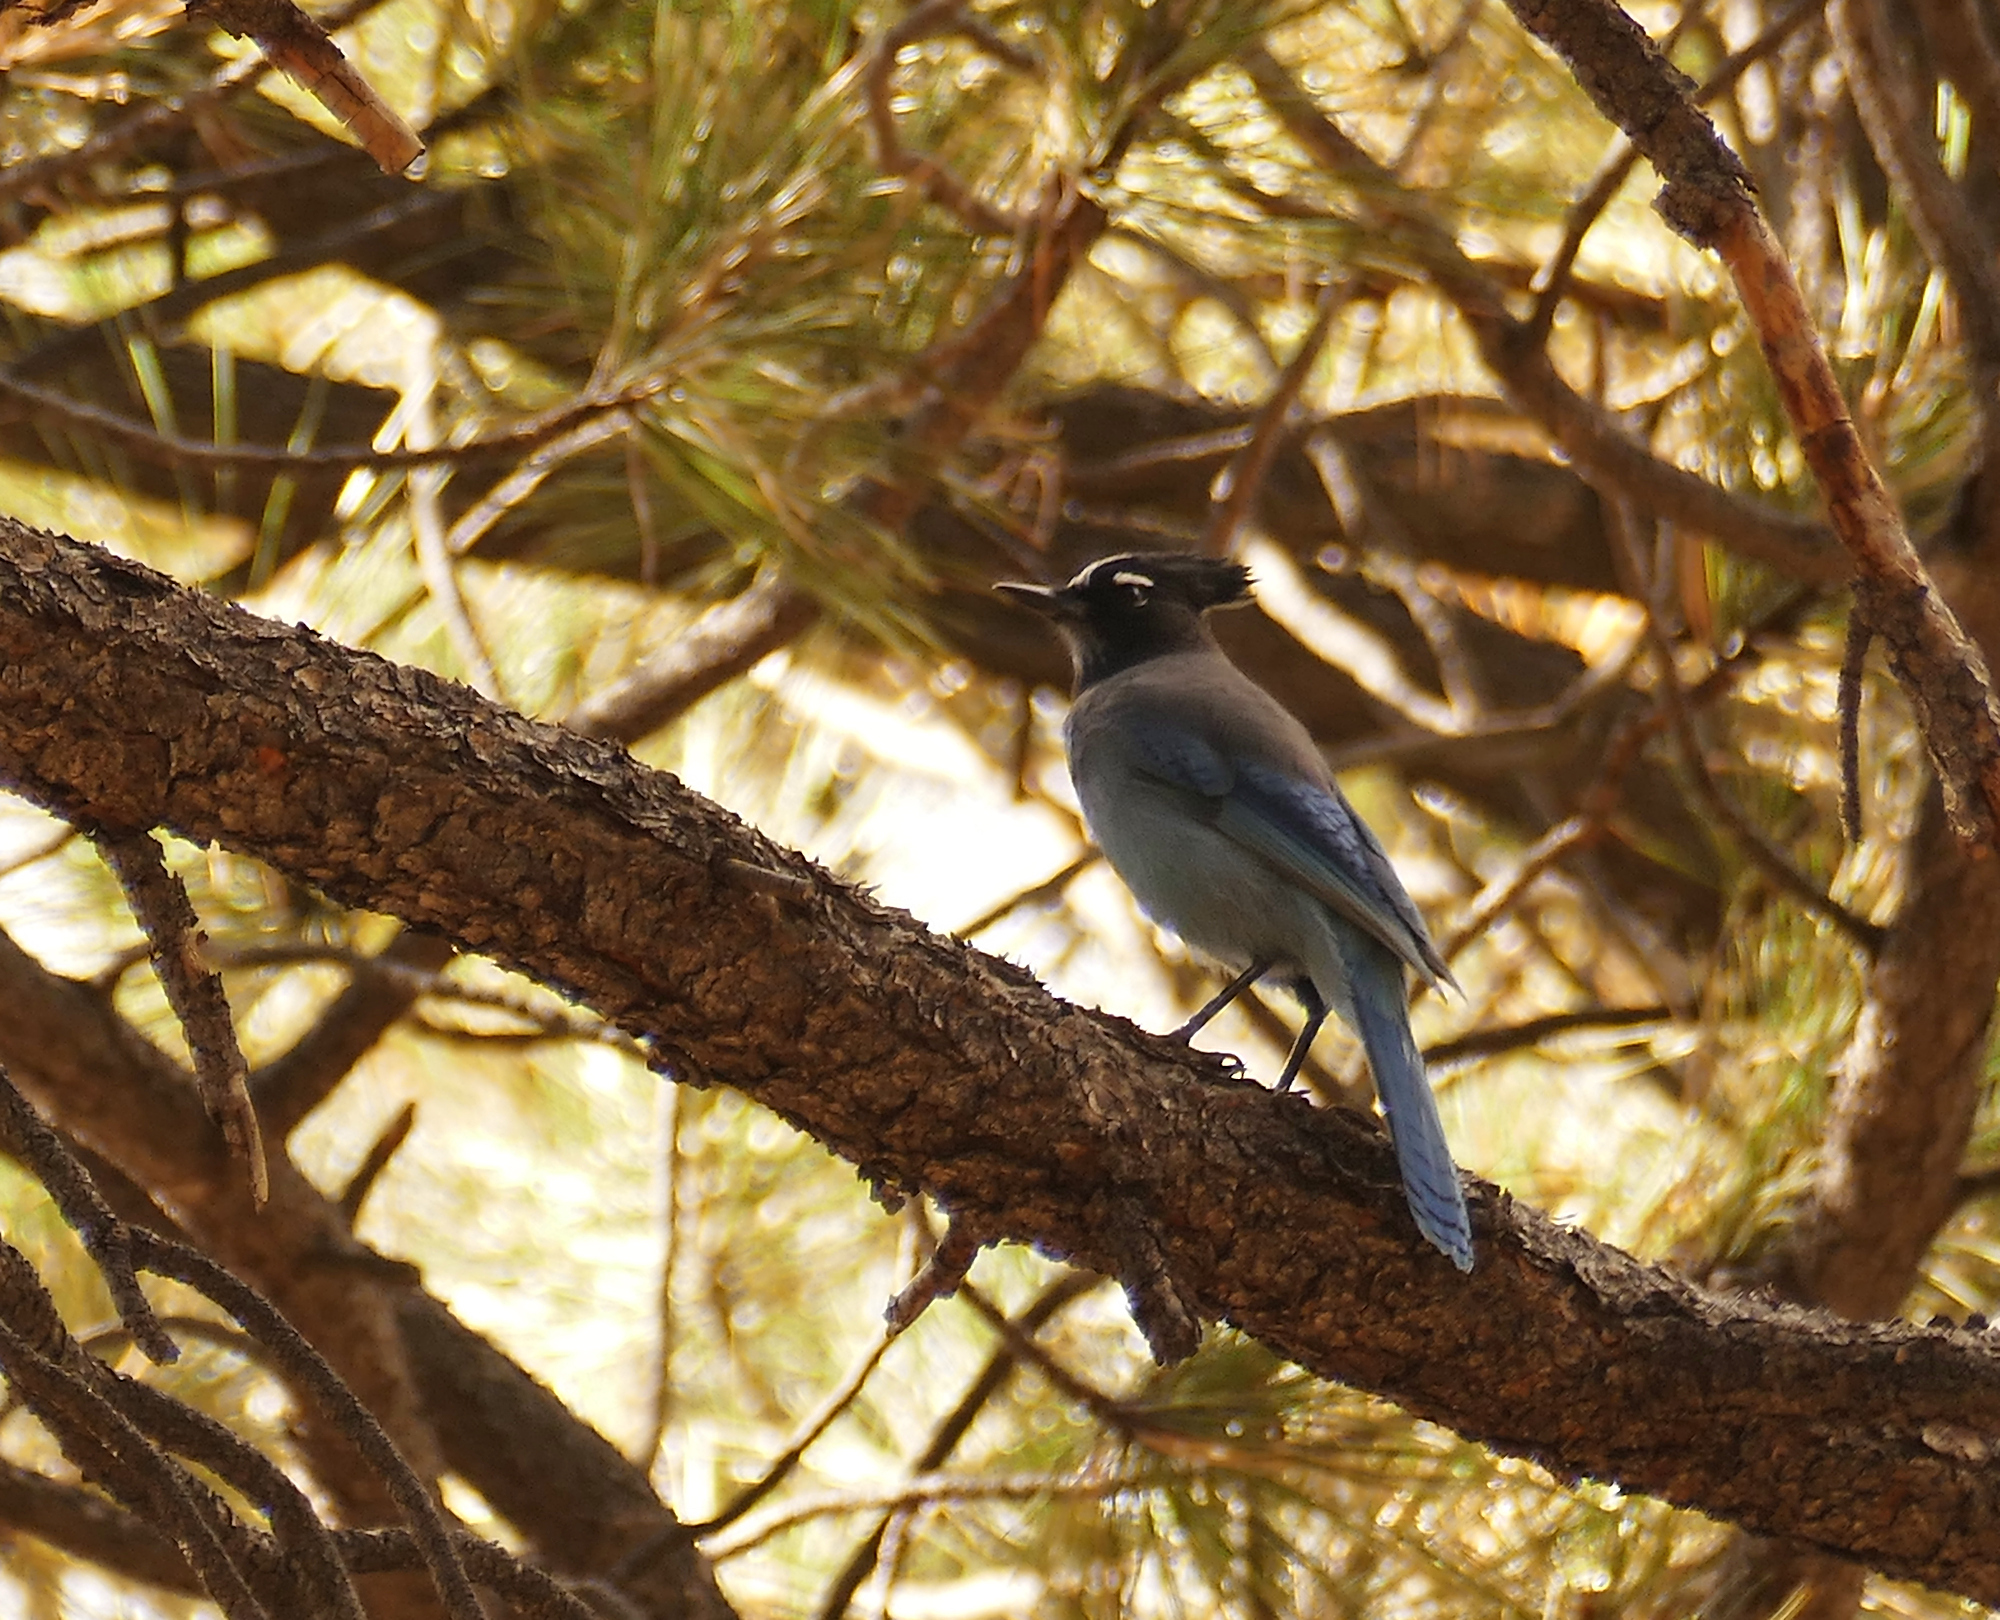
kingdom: Animalia
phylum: Chordata
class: Aves
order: Passeriformes
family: Corvidae
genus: Cyanocitta
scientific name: Cyanocitta stelleri
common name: Steller's jay
